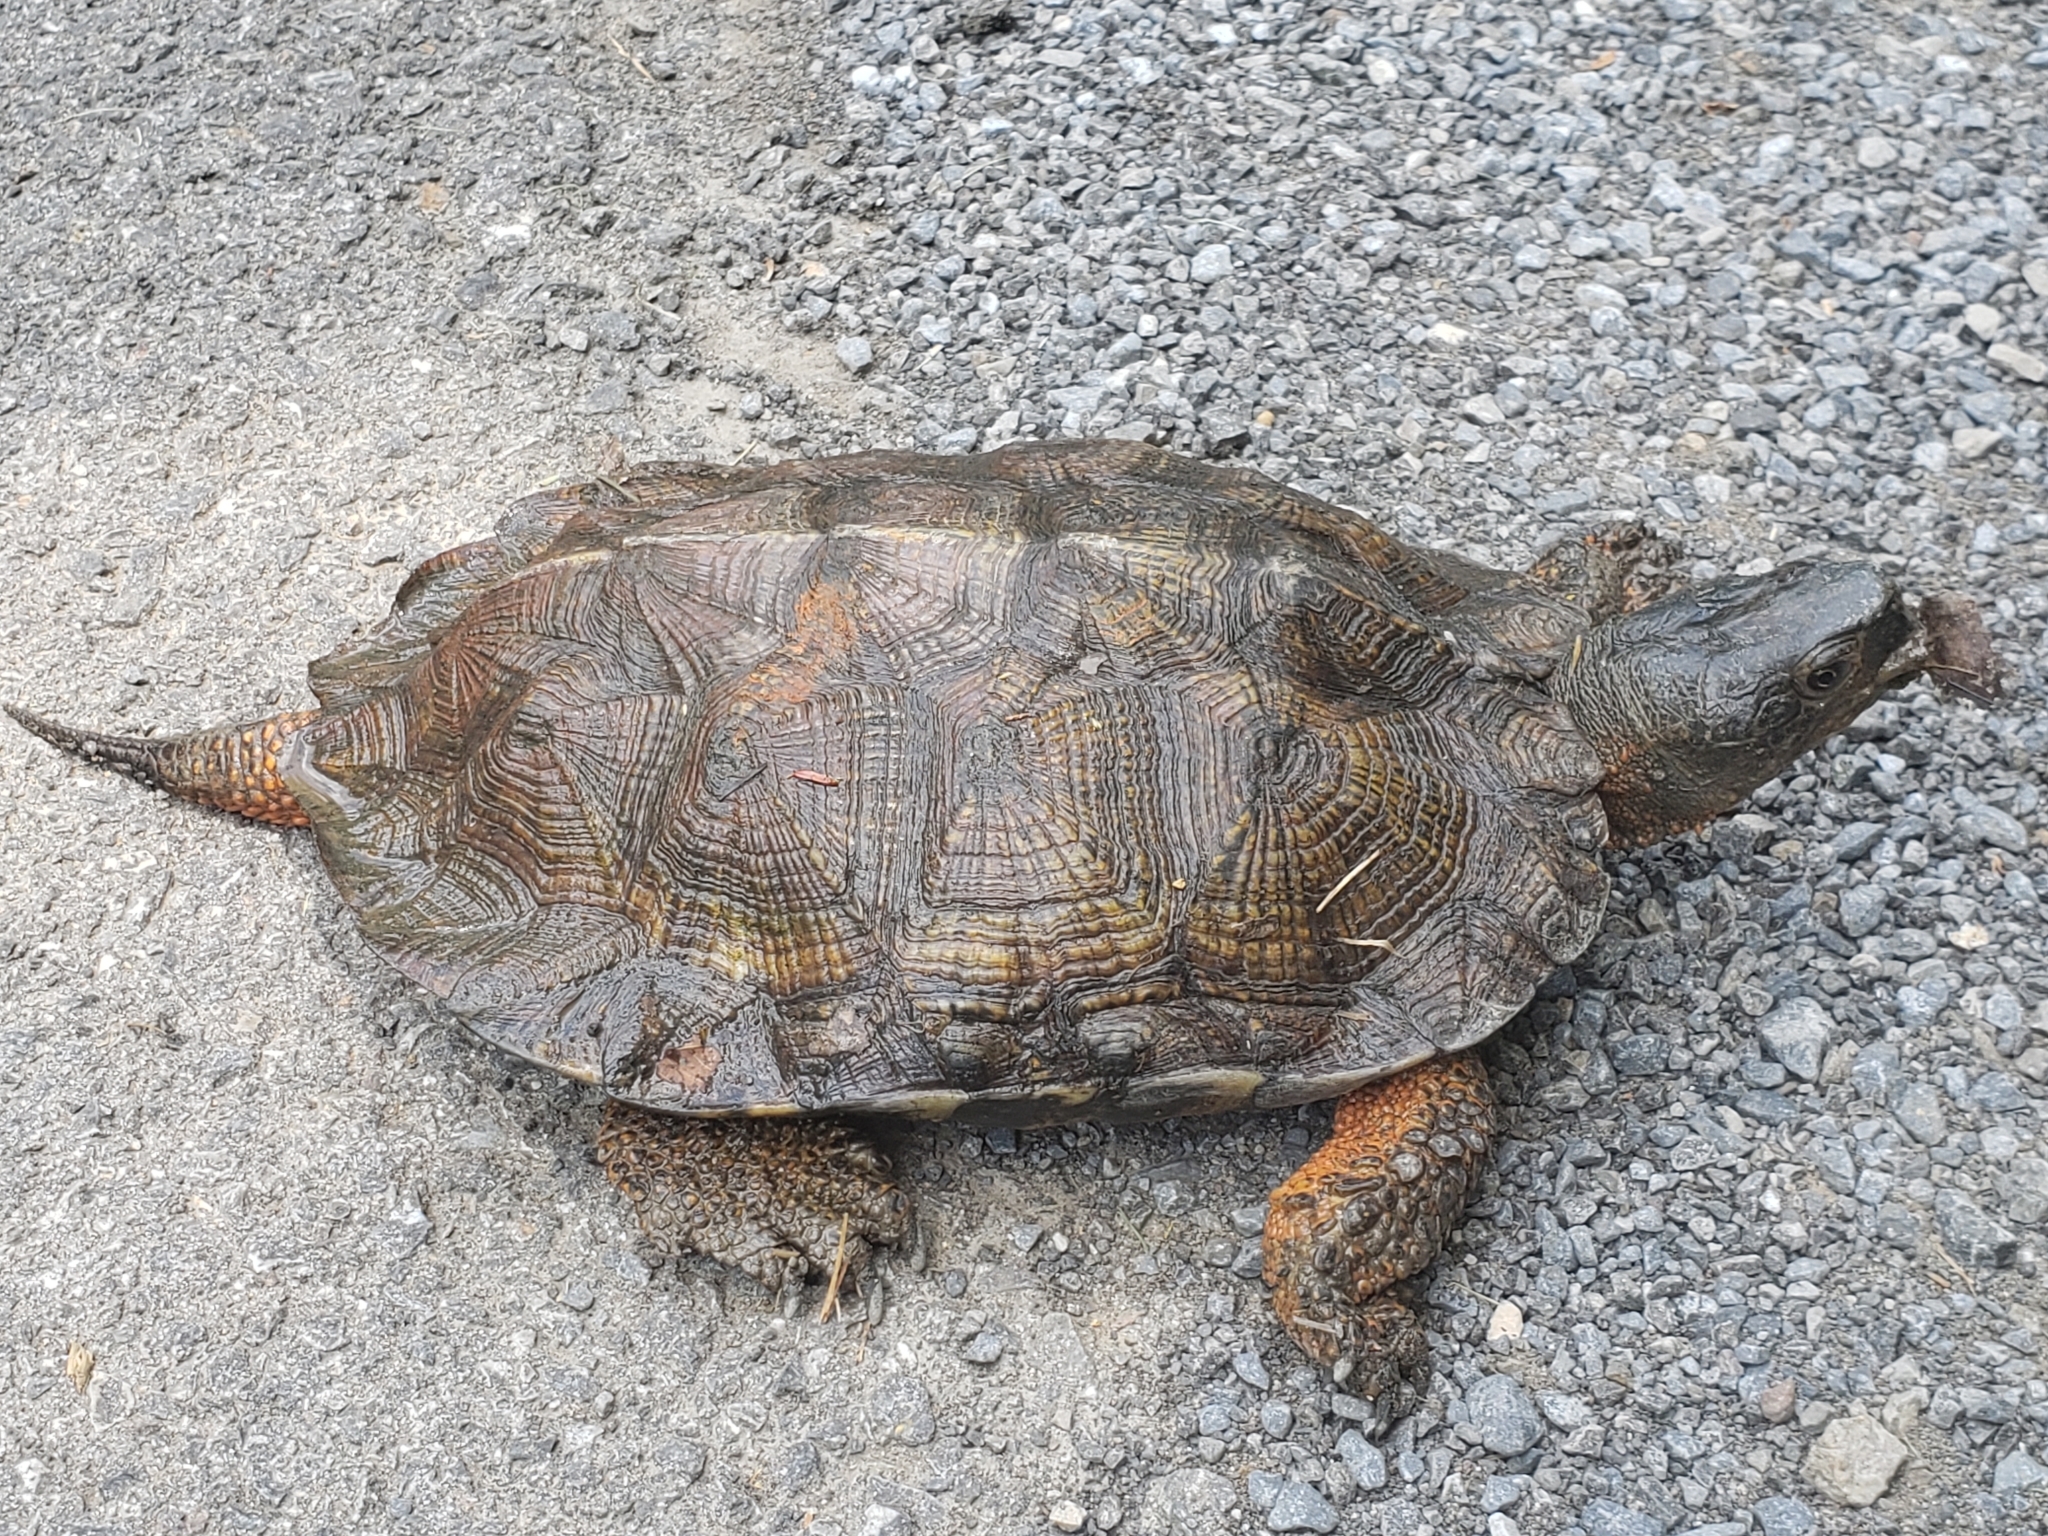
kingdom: Animalia
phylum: Chordata
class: Testudines
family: Emydidae
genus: Glyptemys
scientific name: Glyptemys insculpta
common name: Wood turtle
